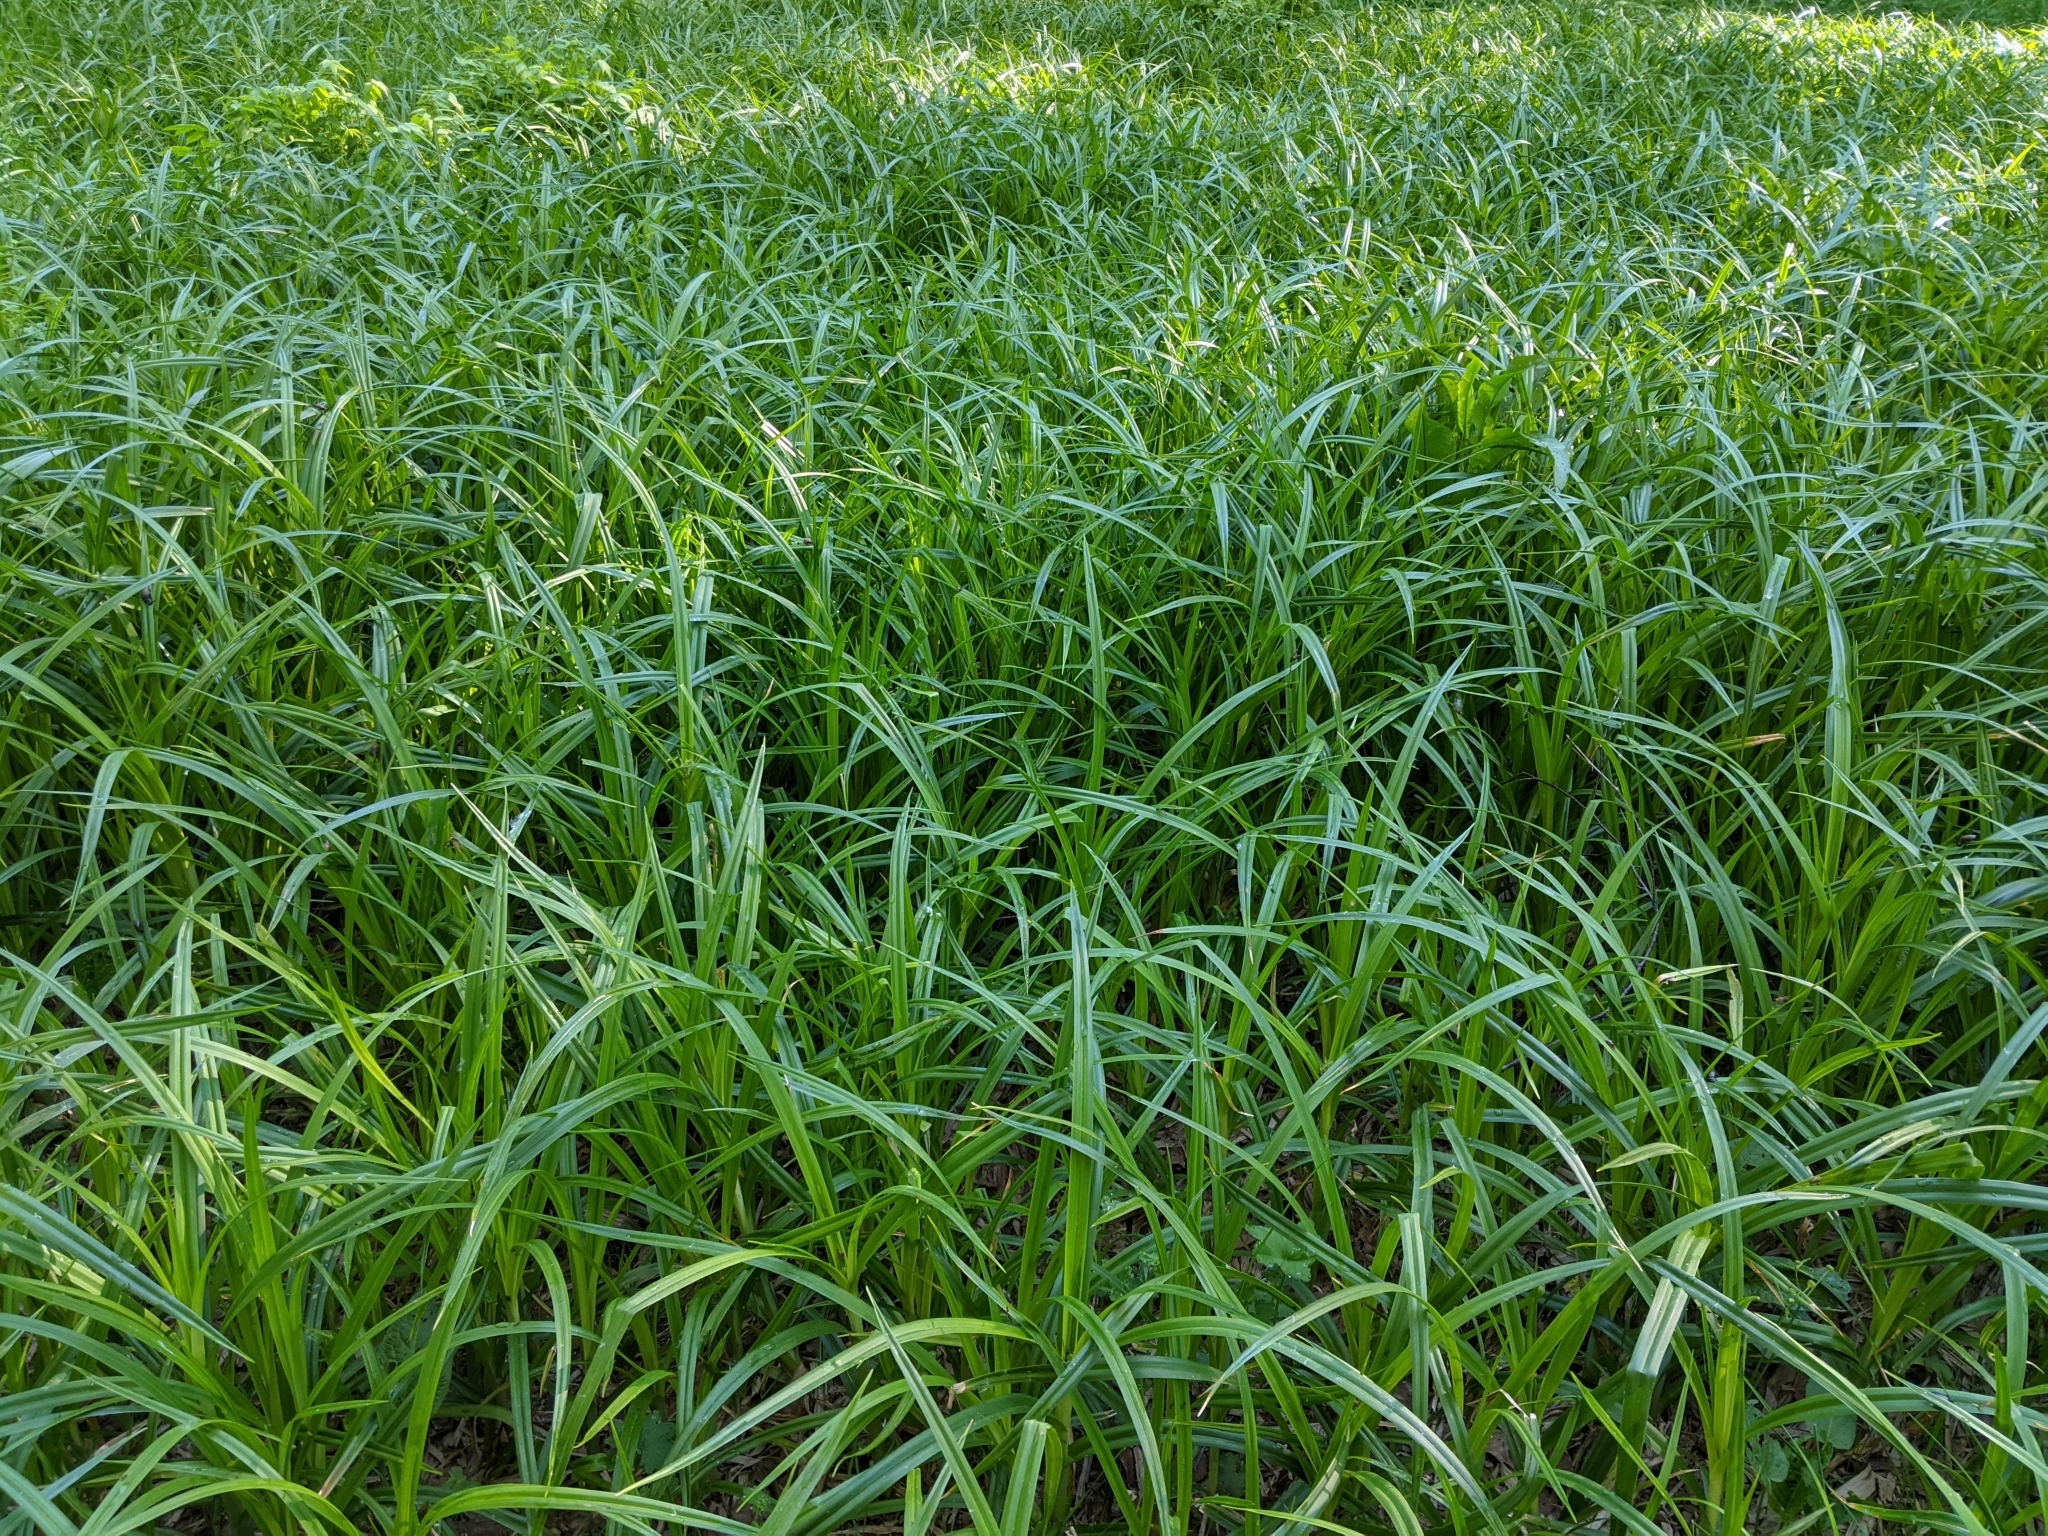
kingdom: Plantae
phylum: Tracheophyta
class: Liliopsida
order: Poales
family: Cyperaceae
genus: Scirpus
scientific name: Scirpus sylvaticus
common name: Wood club-rush
